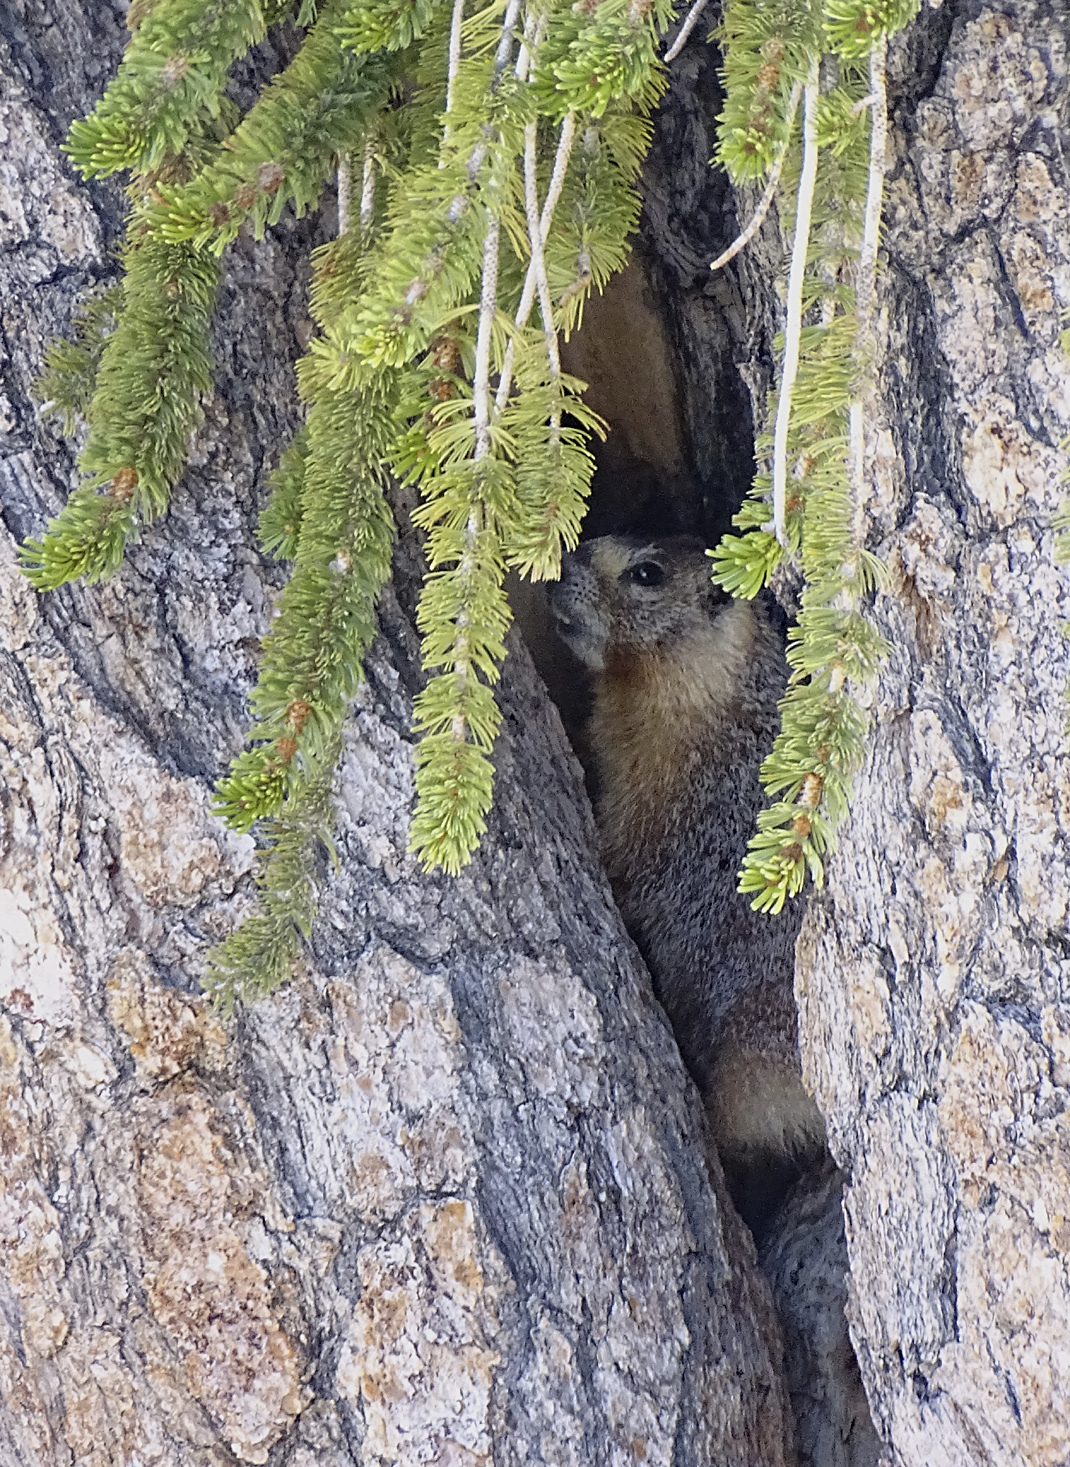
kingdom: Animalia
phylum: Chordata
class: Mammalia
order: Rodentia
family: Sciuridae
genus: Marmota
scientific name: Marmota flaviventris
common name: Yellow-bellied marmot
